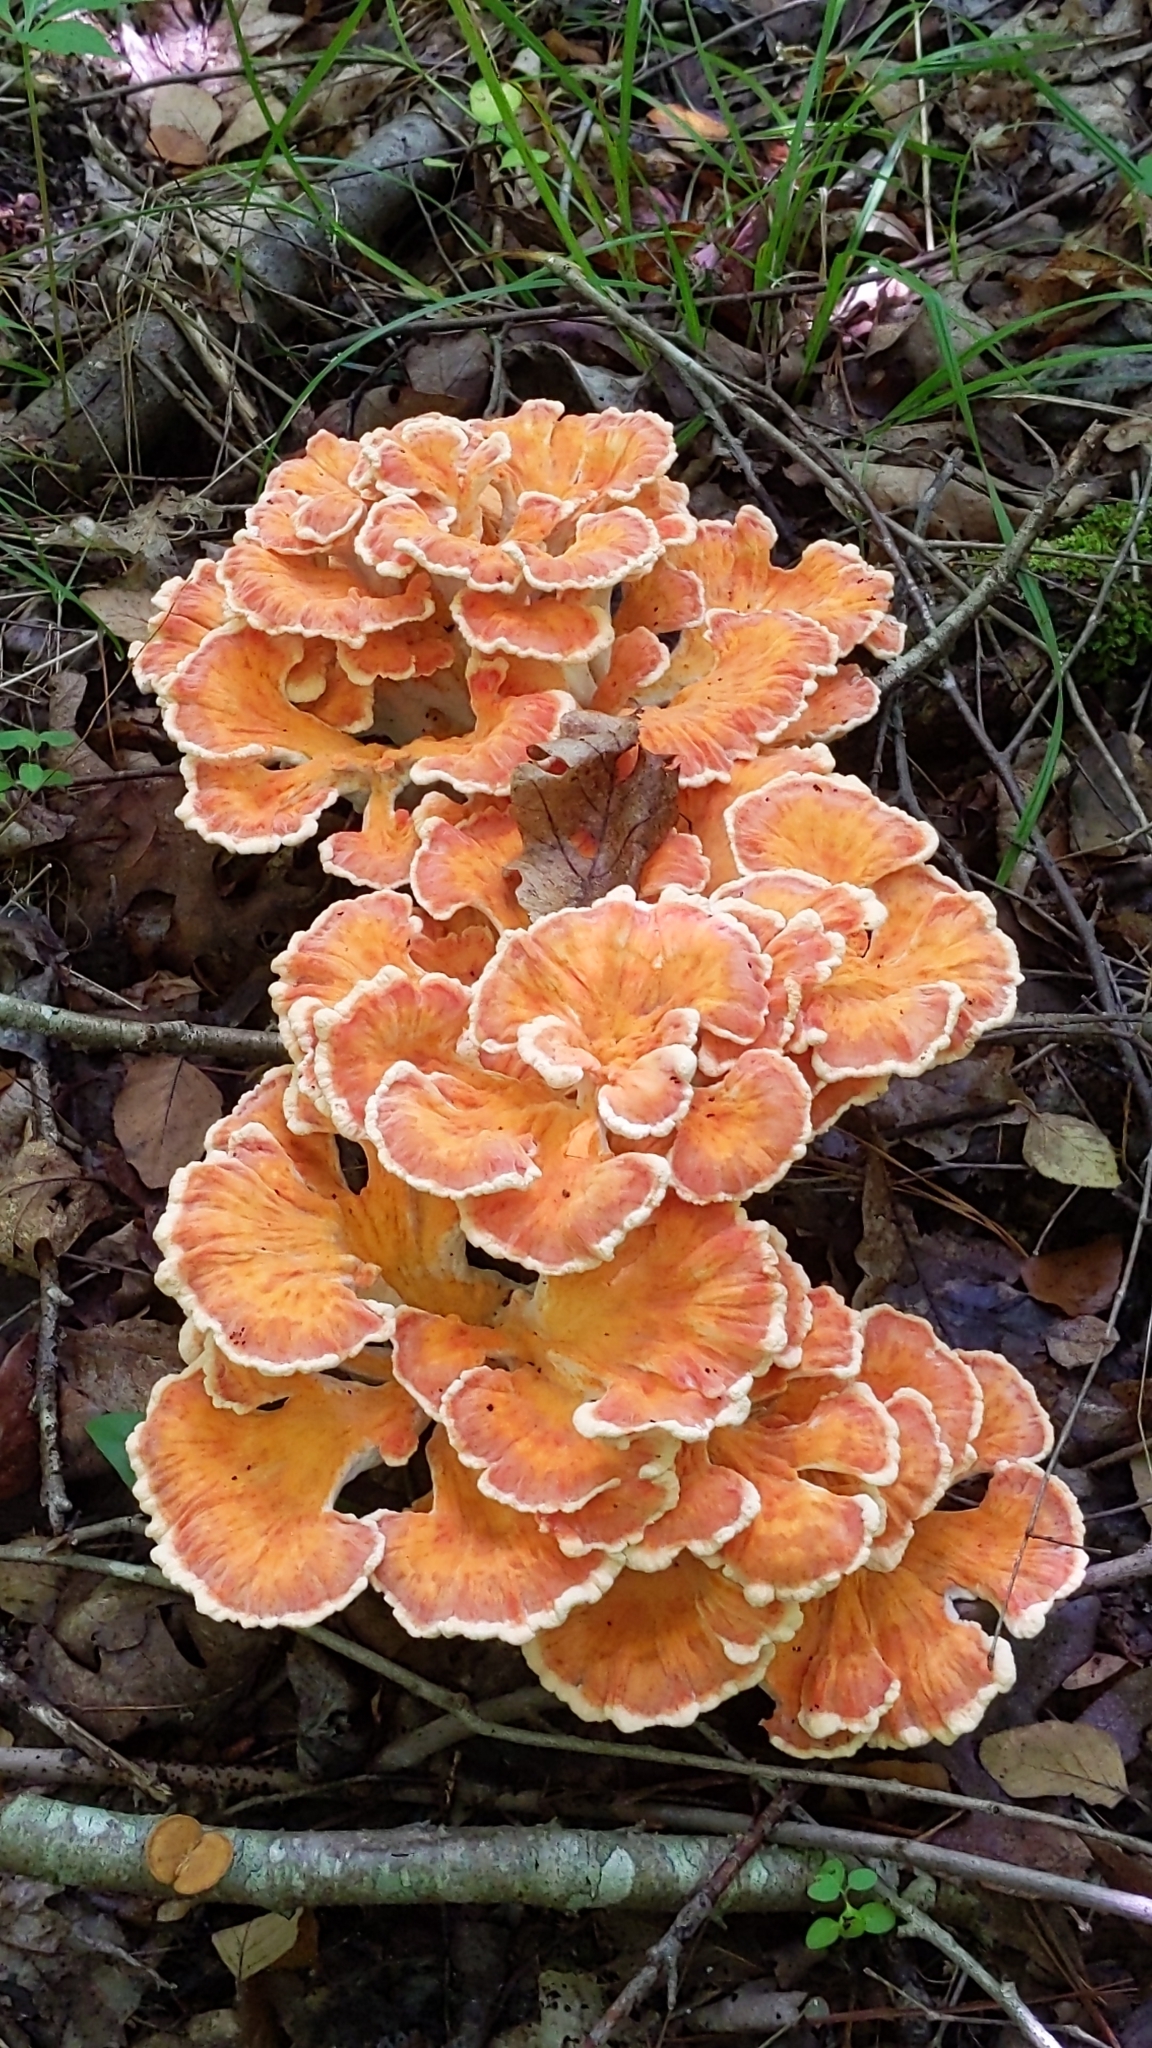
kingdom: Fungi
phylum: Basidiomycota
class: Agaricomycetes
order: Polyporales
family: Laetiporaceae
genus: Laetiporus
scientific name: Laetiporus sulphureus
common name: Chicken of the woods
